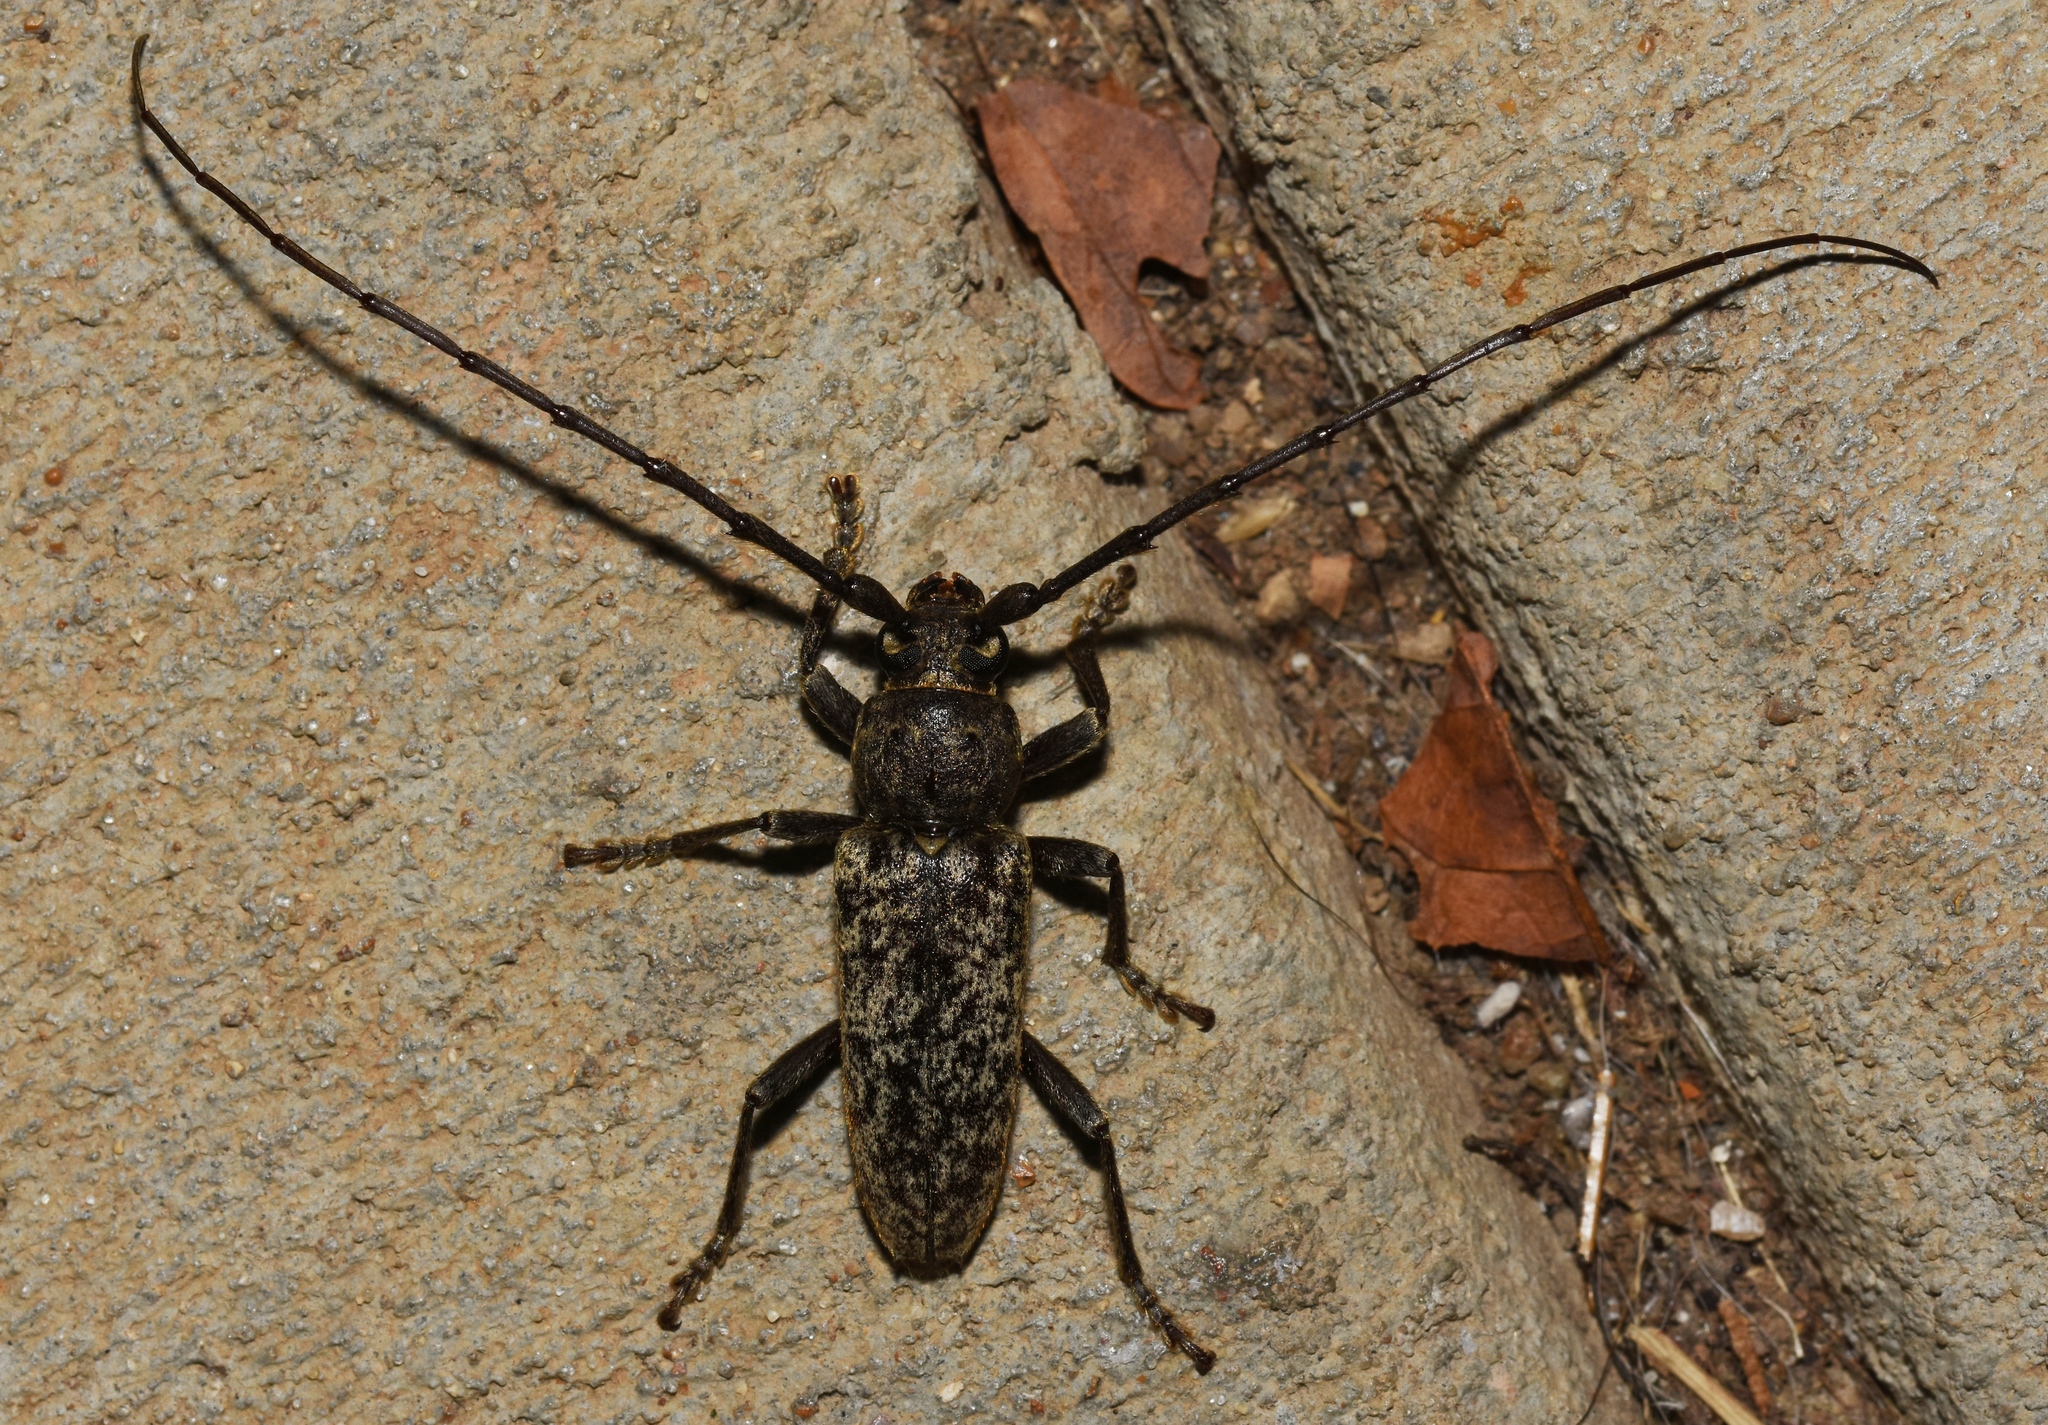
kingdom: Animalia
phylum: Arthropoda
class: Insecta
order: Coleoptera
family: Cerambycidae
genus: Enaphalodes
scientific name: Enaphalodes atomarius
